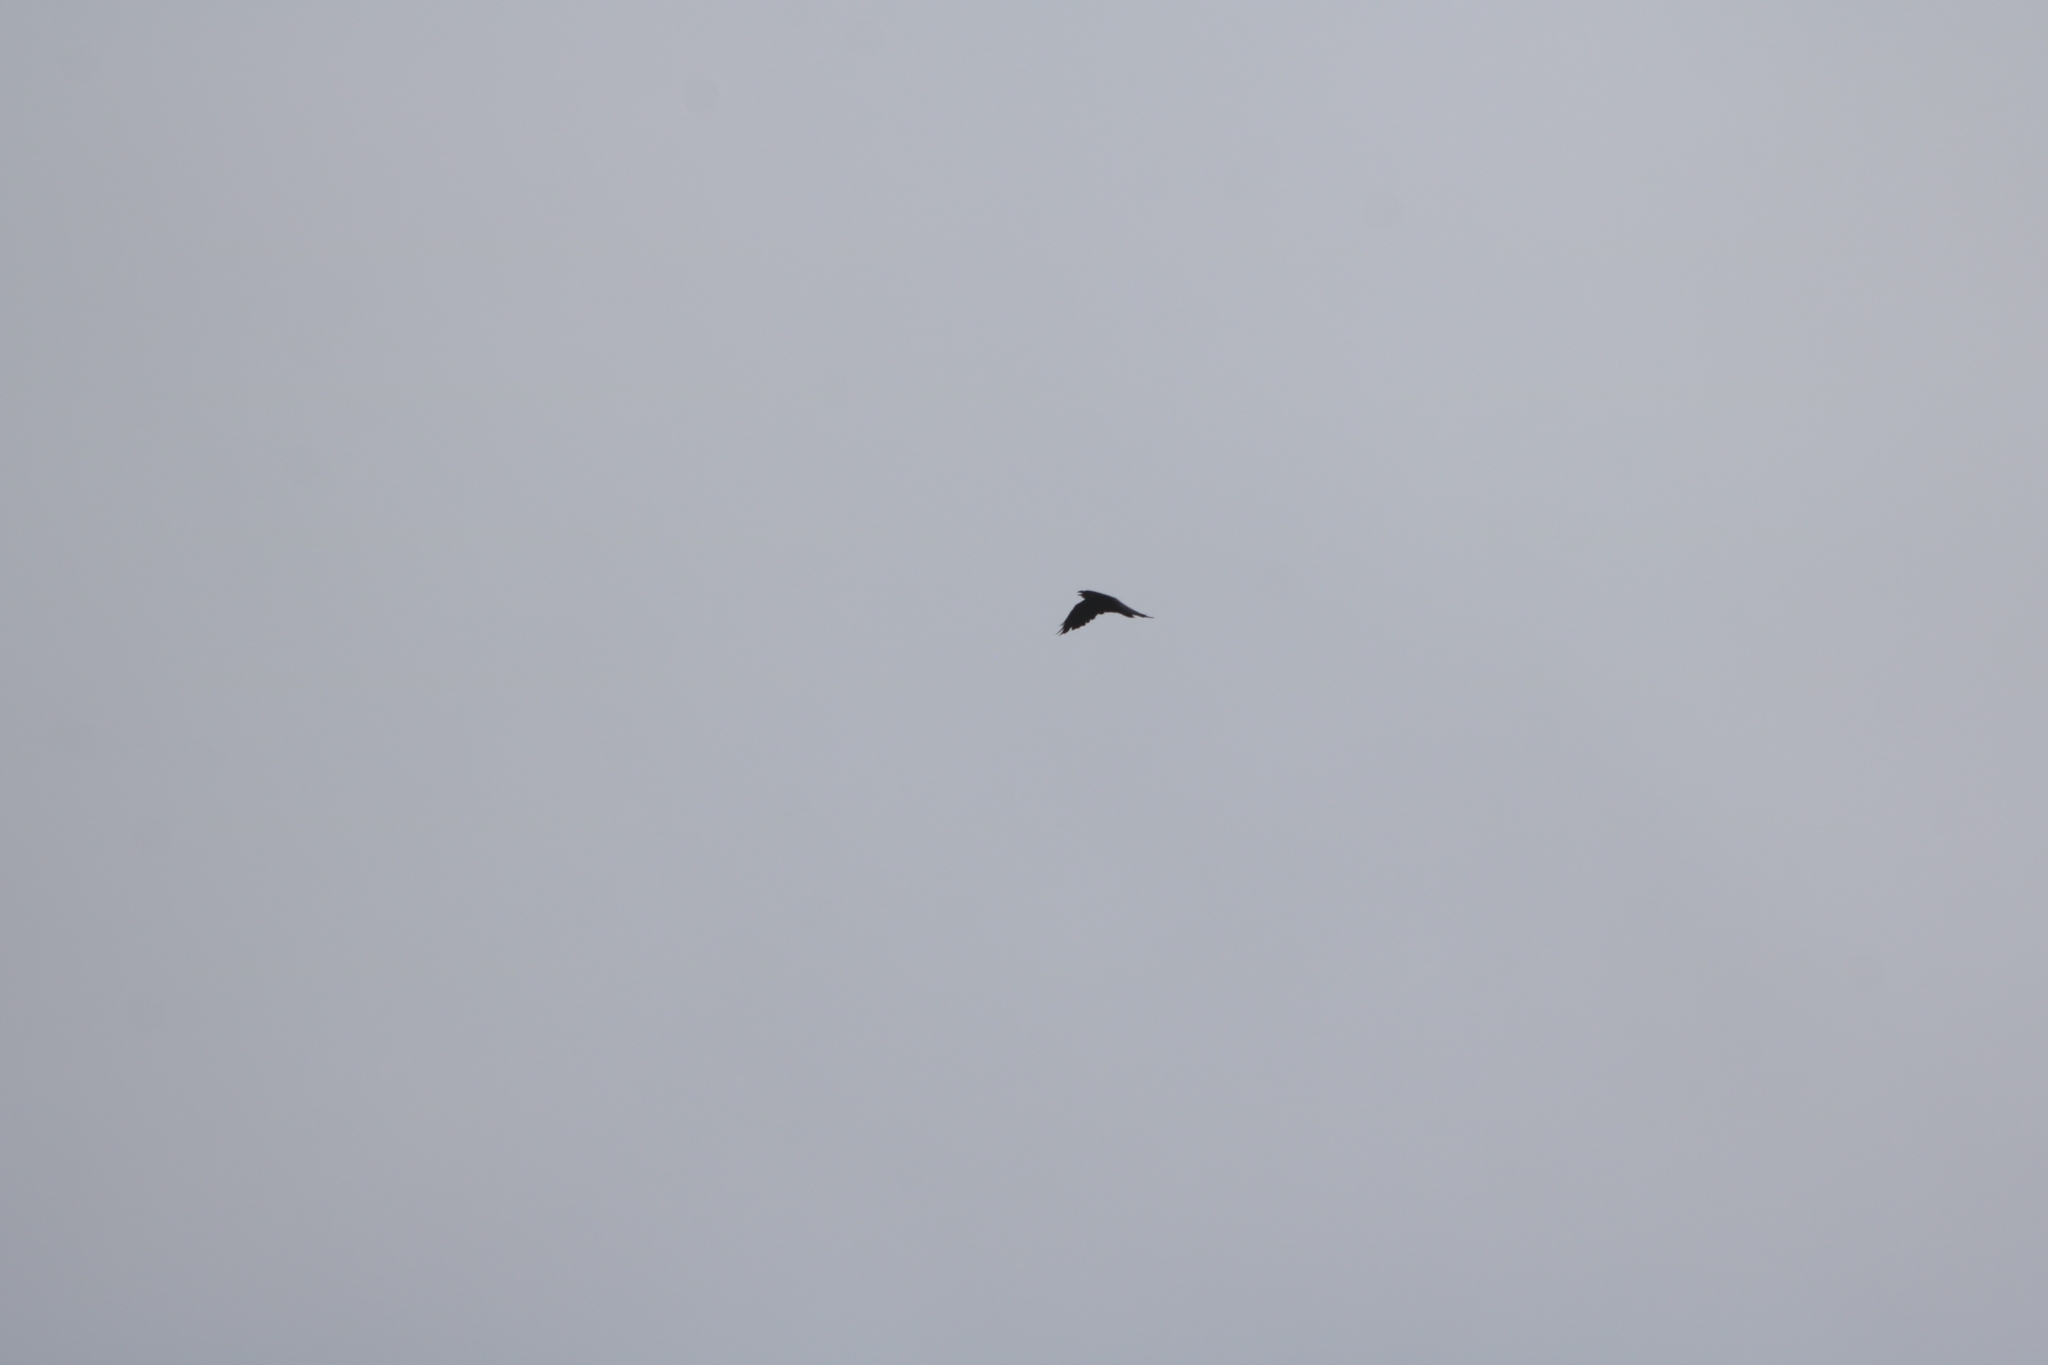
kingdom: Animalia
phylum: Chordata
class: Aves
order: Passeriformes
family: Corvidae
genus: Corvus
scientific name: Corvus corax
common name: Common raven
